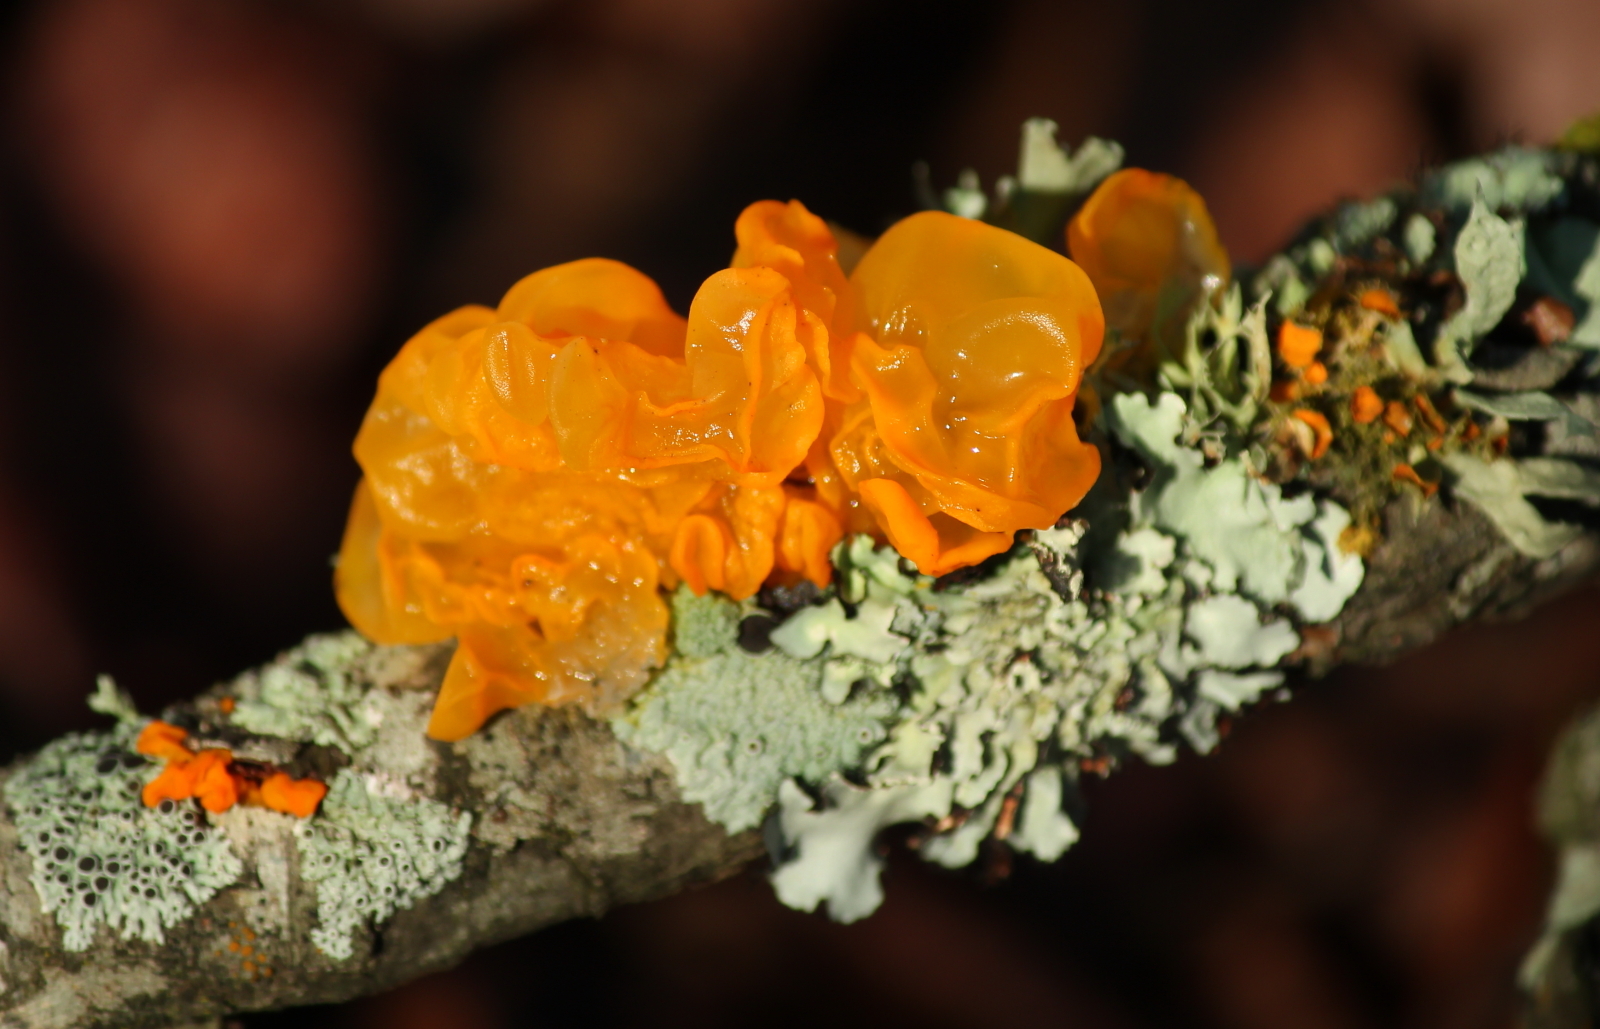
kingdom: Fungi
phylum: Basidiomycota
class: Tremellomycetes
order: Tremellales
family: Tremellaceae
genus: Tremella
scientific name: Tremella mesenterica
